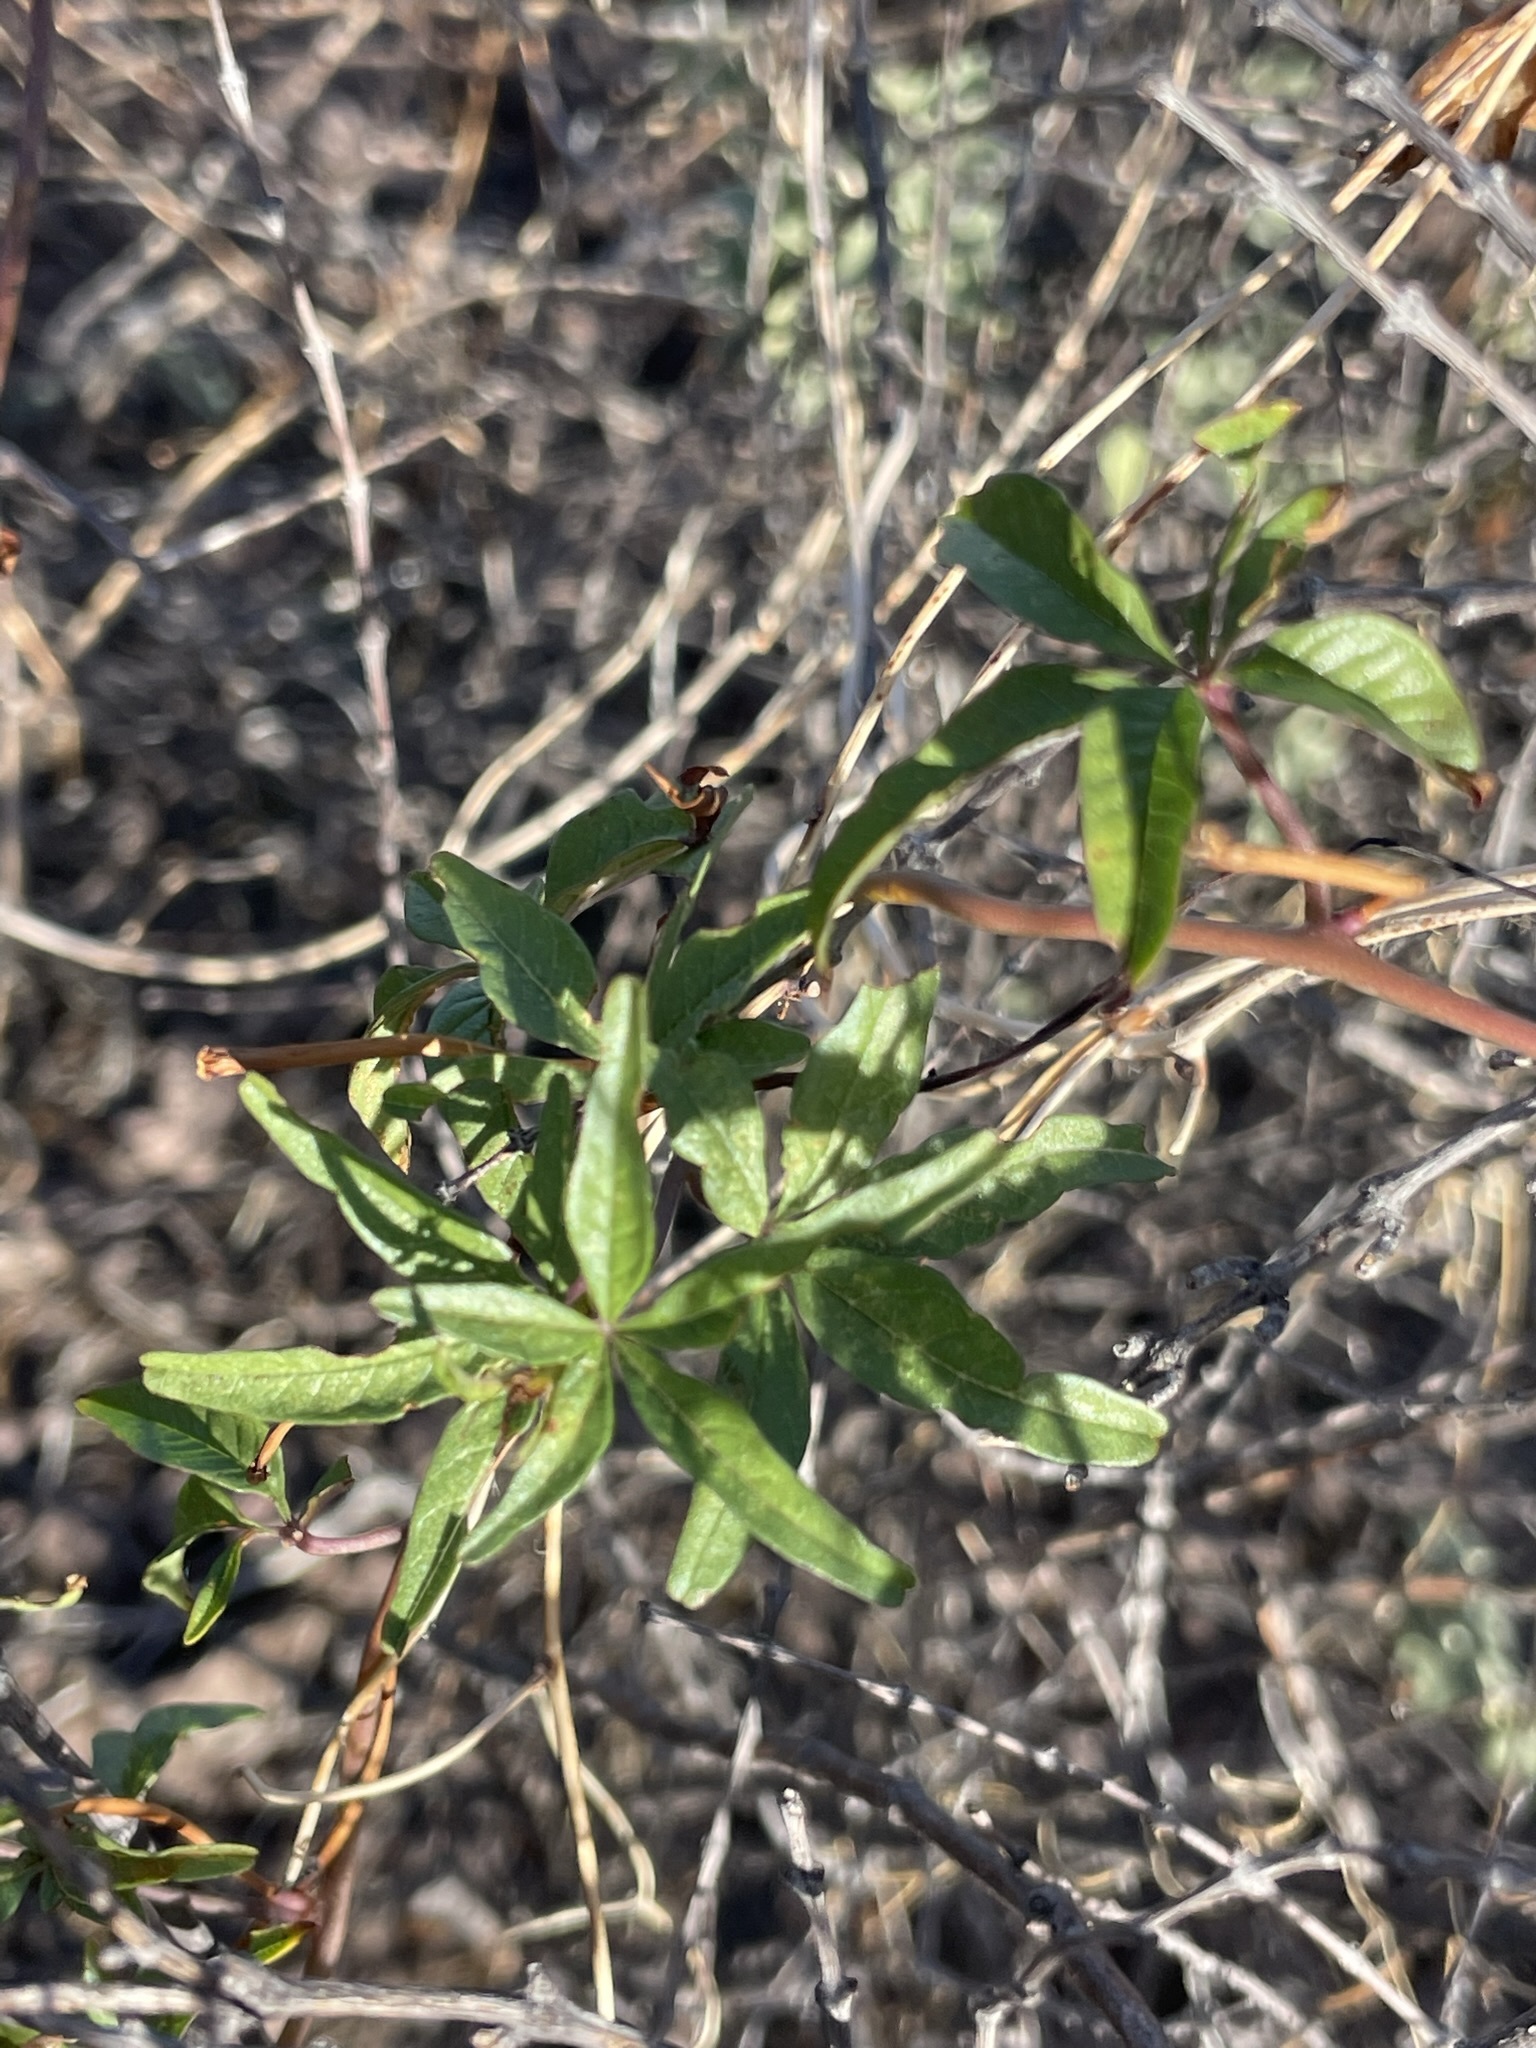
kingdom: Plantae
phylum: Tracheophyta
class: Magnoliopsida
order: Solanales
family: Convolvulaceae
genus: Distimake
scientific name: Distimake aureus
